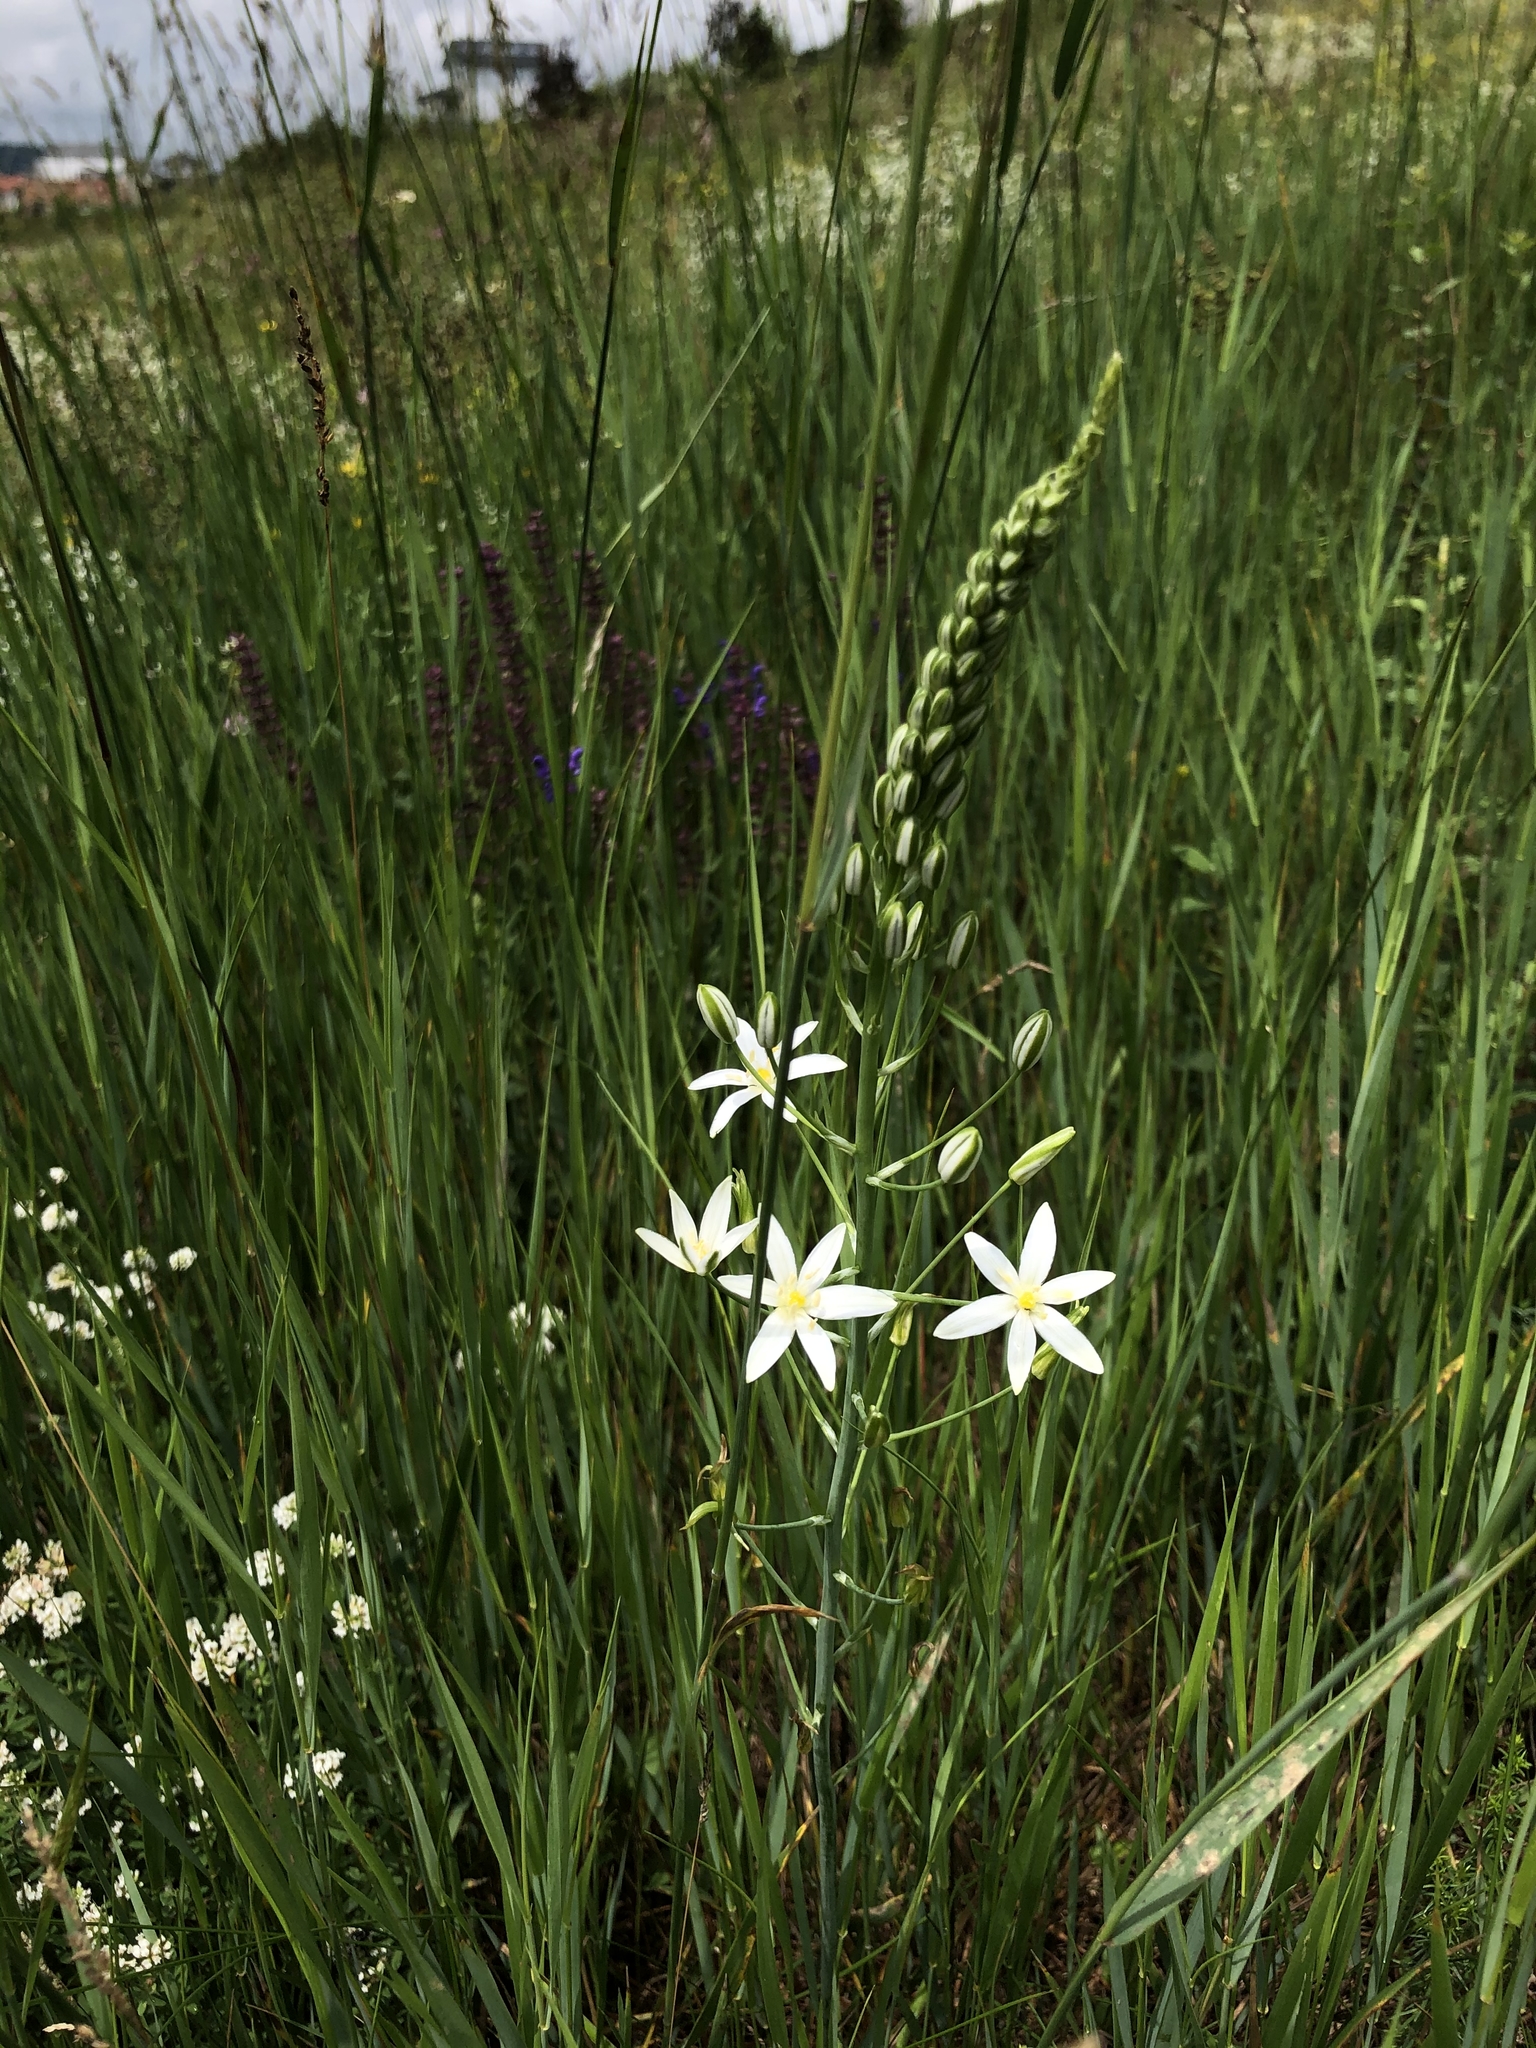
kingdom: Plantae
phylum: Tracheophyta
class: Liliopsida
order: Asparagales
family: Asparagaceae
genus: Ornithogalum
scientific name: Ornithogalum pyramidale
